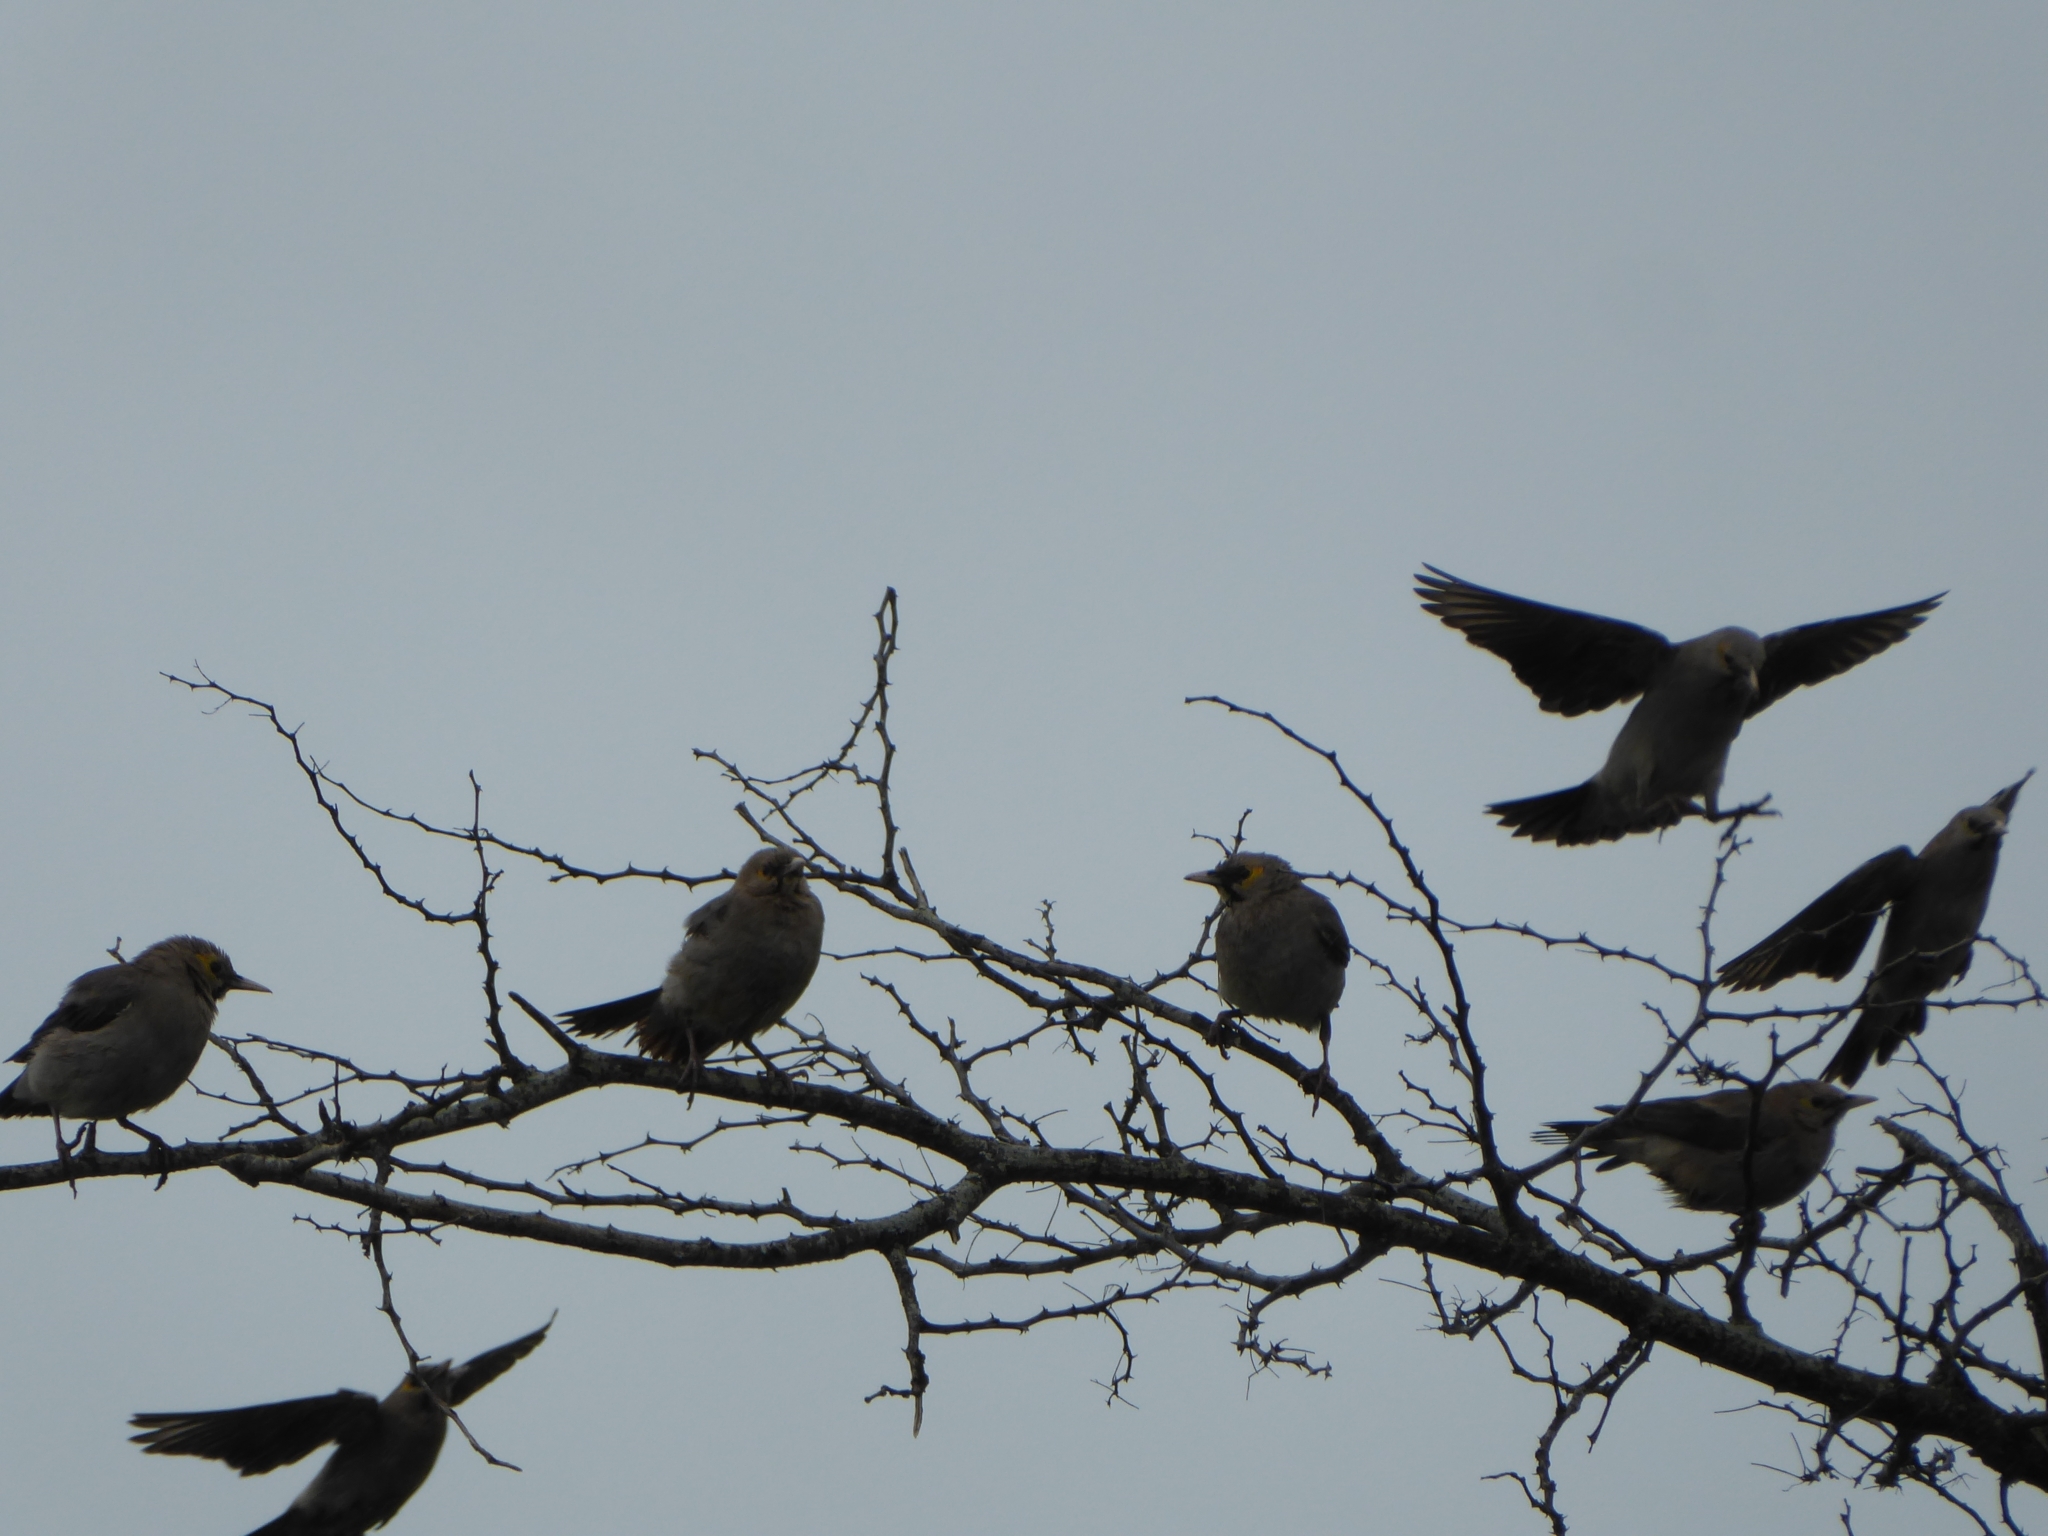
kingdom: Animalia
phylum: Chordata
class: Aves
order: Passeriformes
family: Sturnidae
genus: Creatophora
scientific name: Creatophora cinerea
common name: Wattled starling
